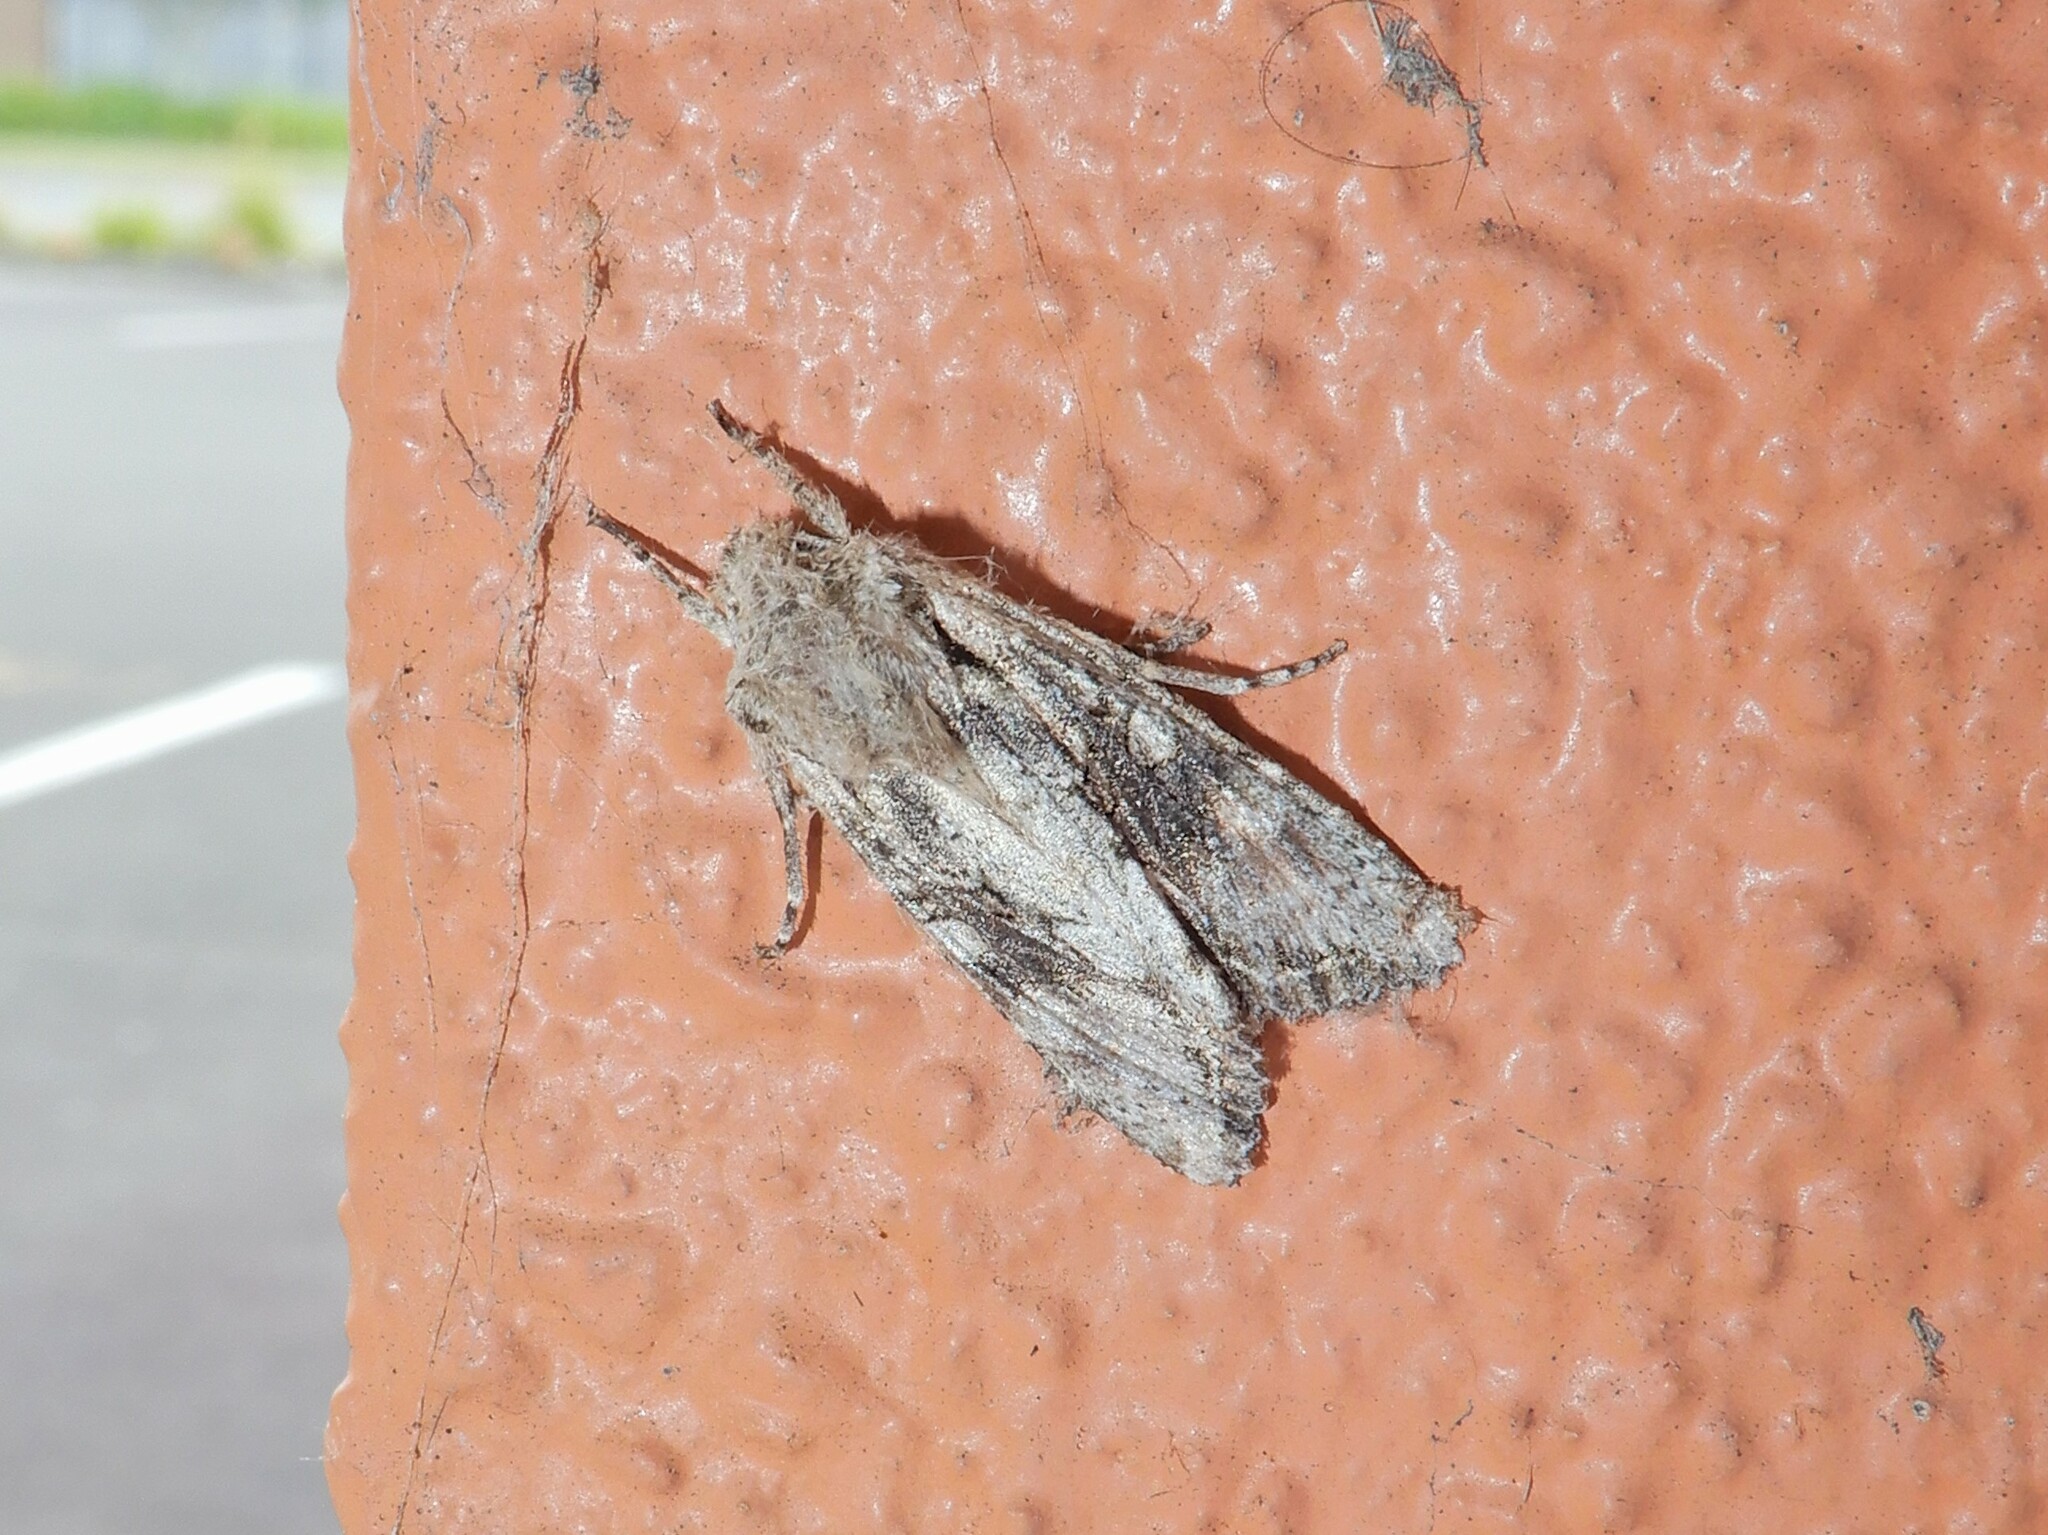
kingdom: Animalia
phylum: Arthropoda
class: Insecta
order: Lepidoptera
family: Noctuidae
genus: Ichneutica
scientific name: Ichneutica mutans
